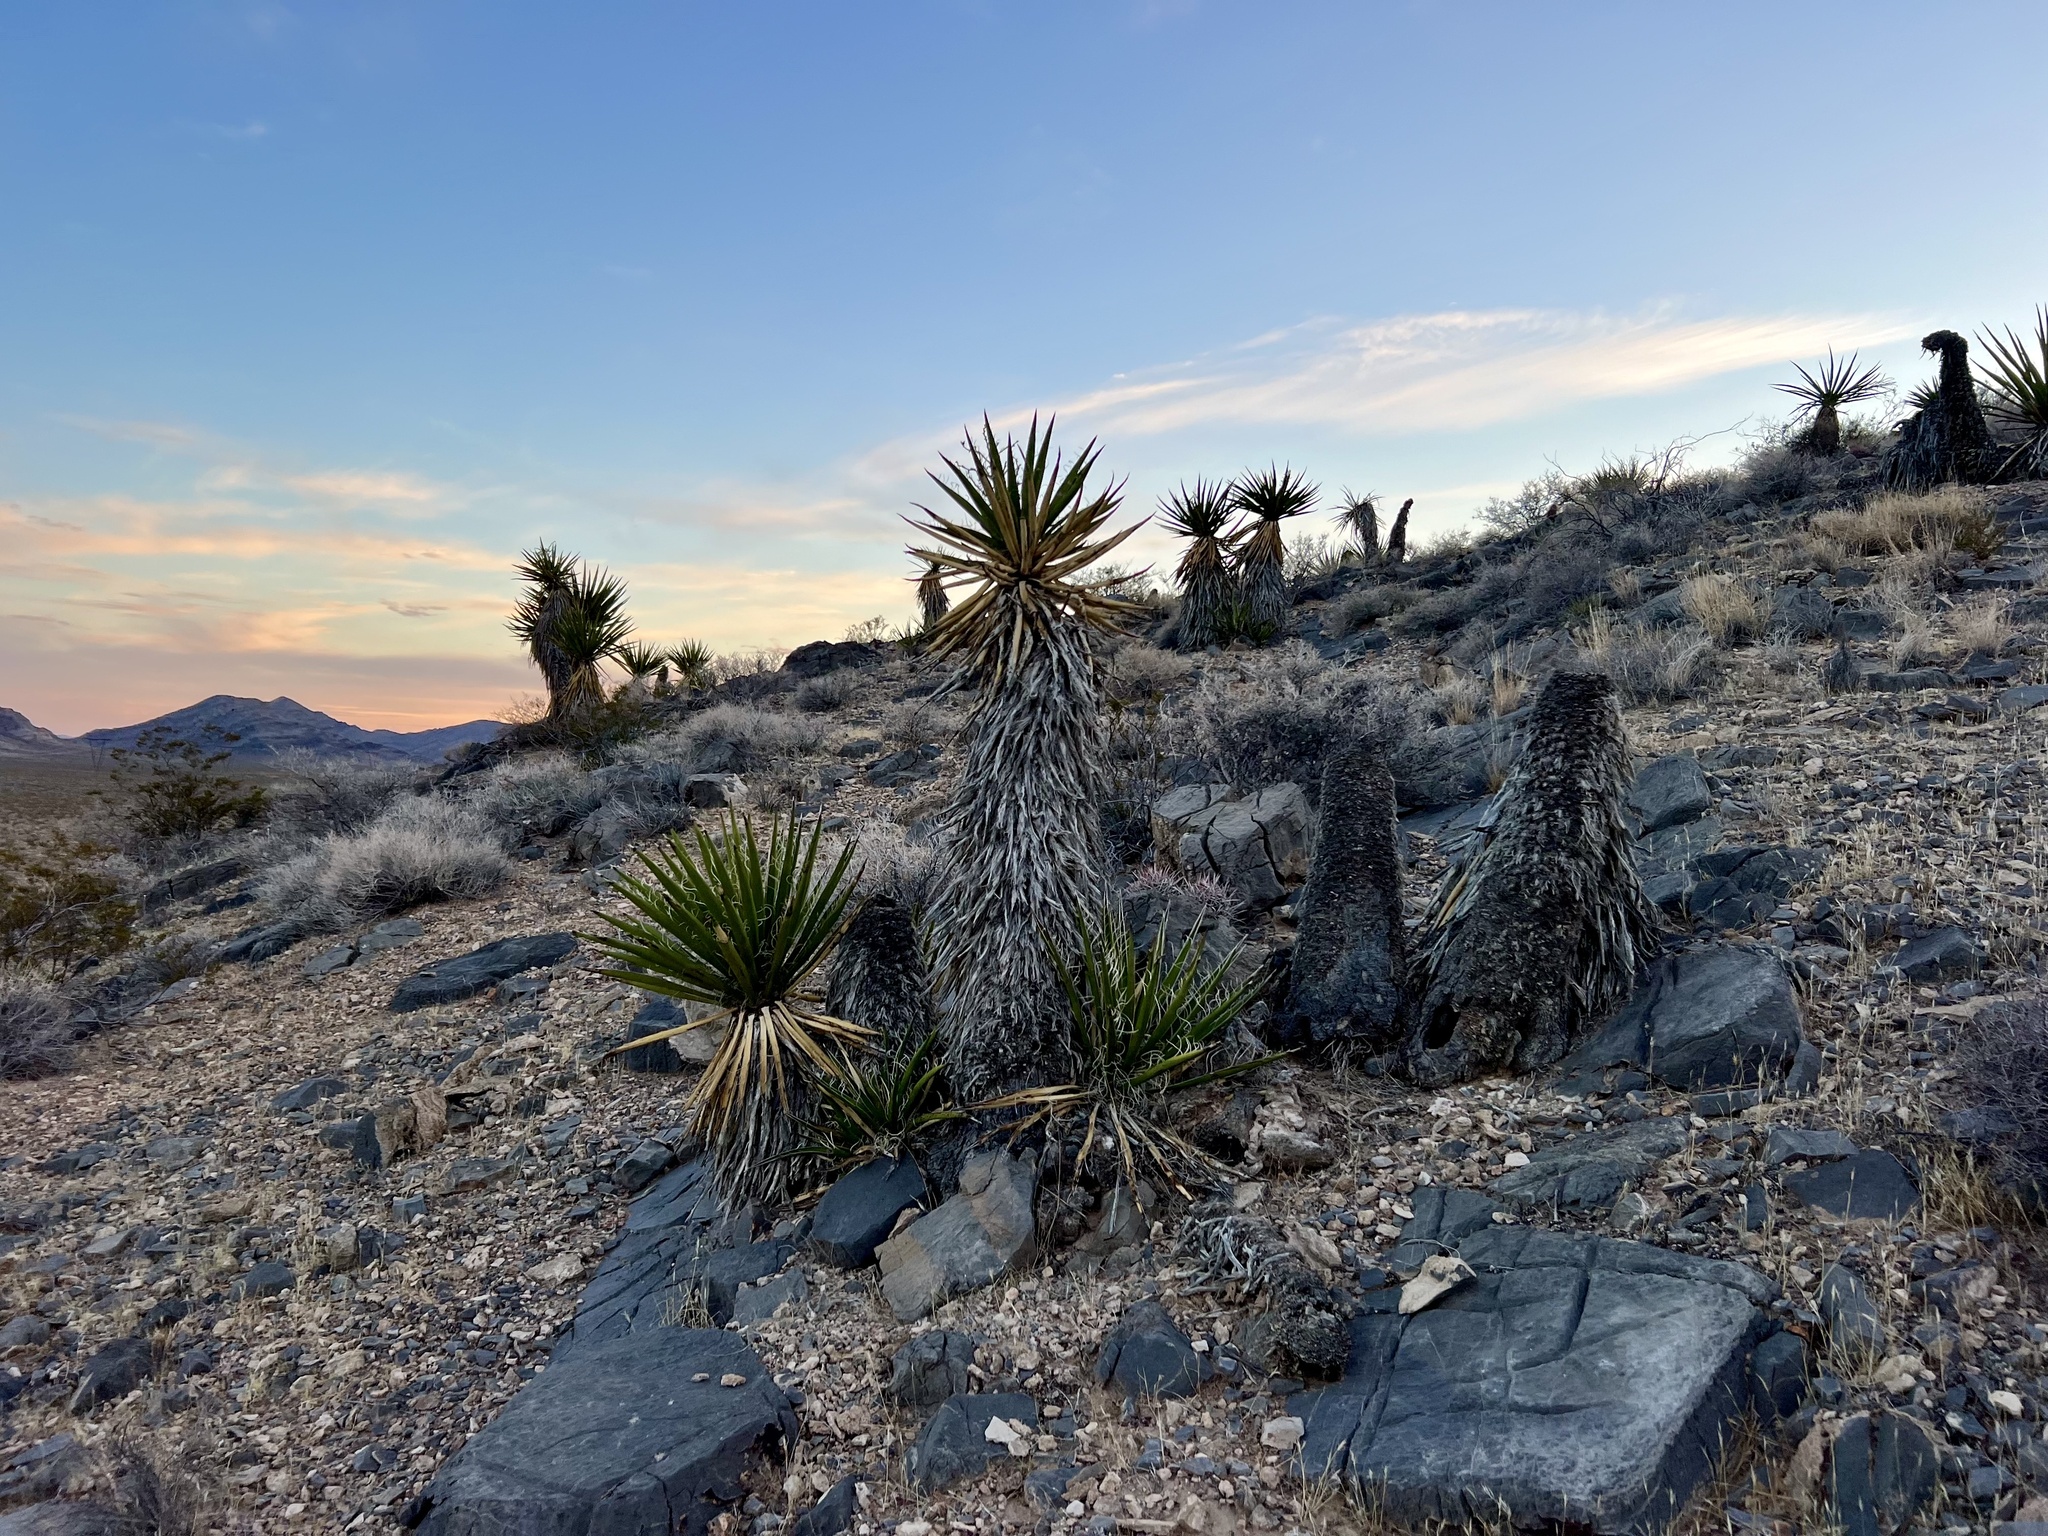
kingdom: Plantae
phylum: Tracheophyta
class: Liliopsida
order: Asparagales
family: Asparagaceae
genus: Yucca
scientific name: Yucca schidigera
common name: Mojave yucca
